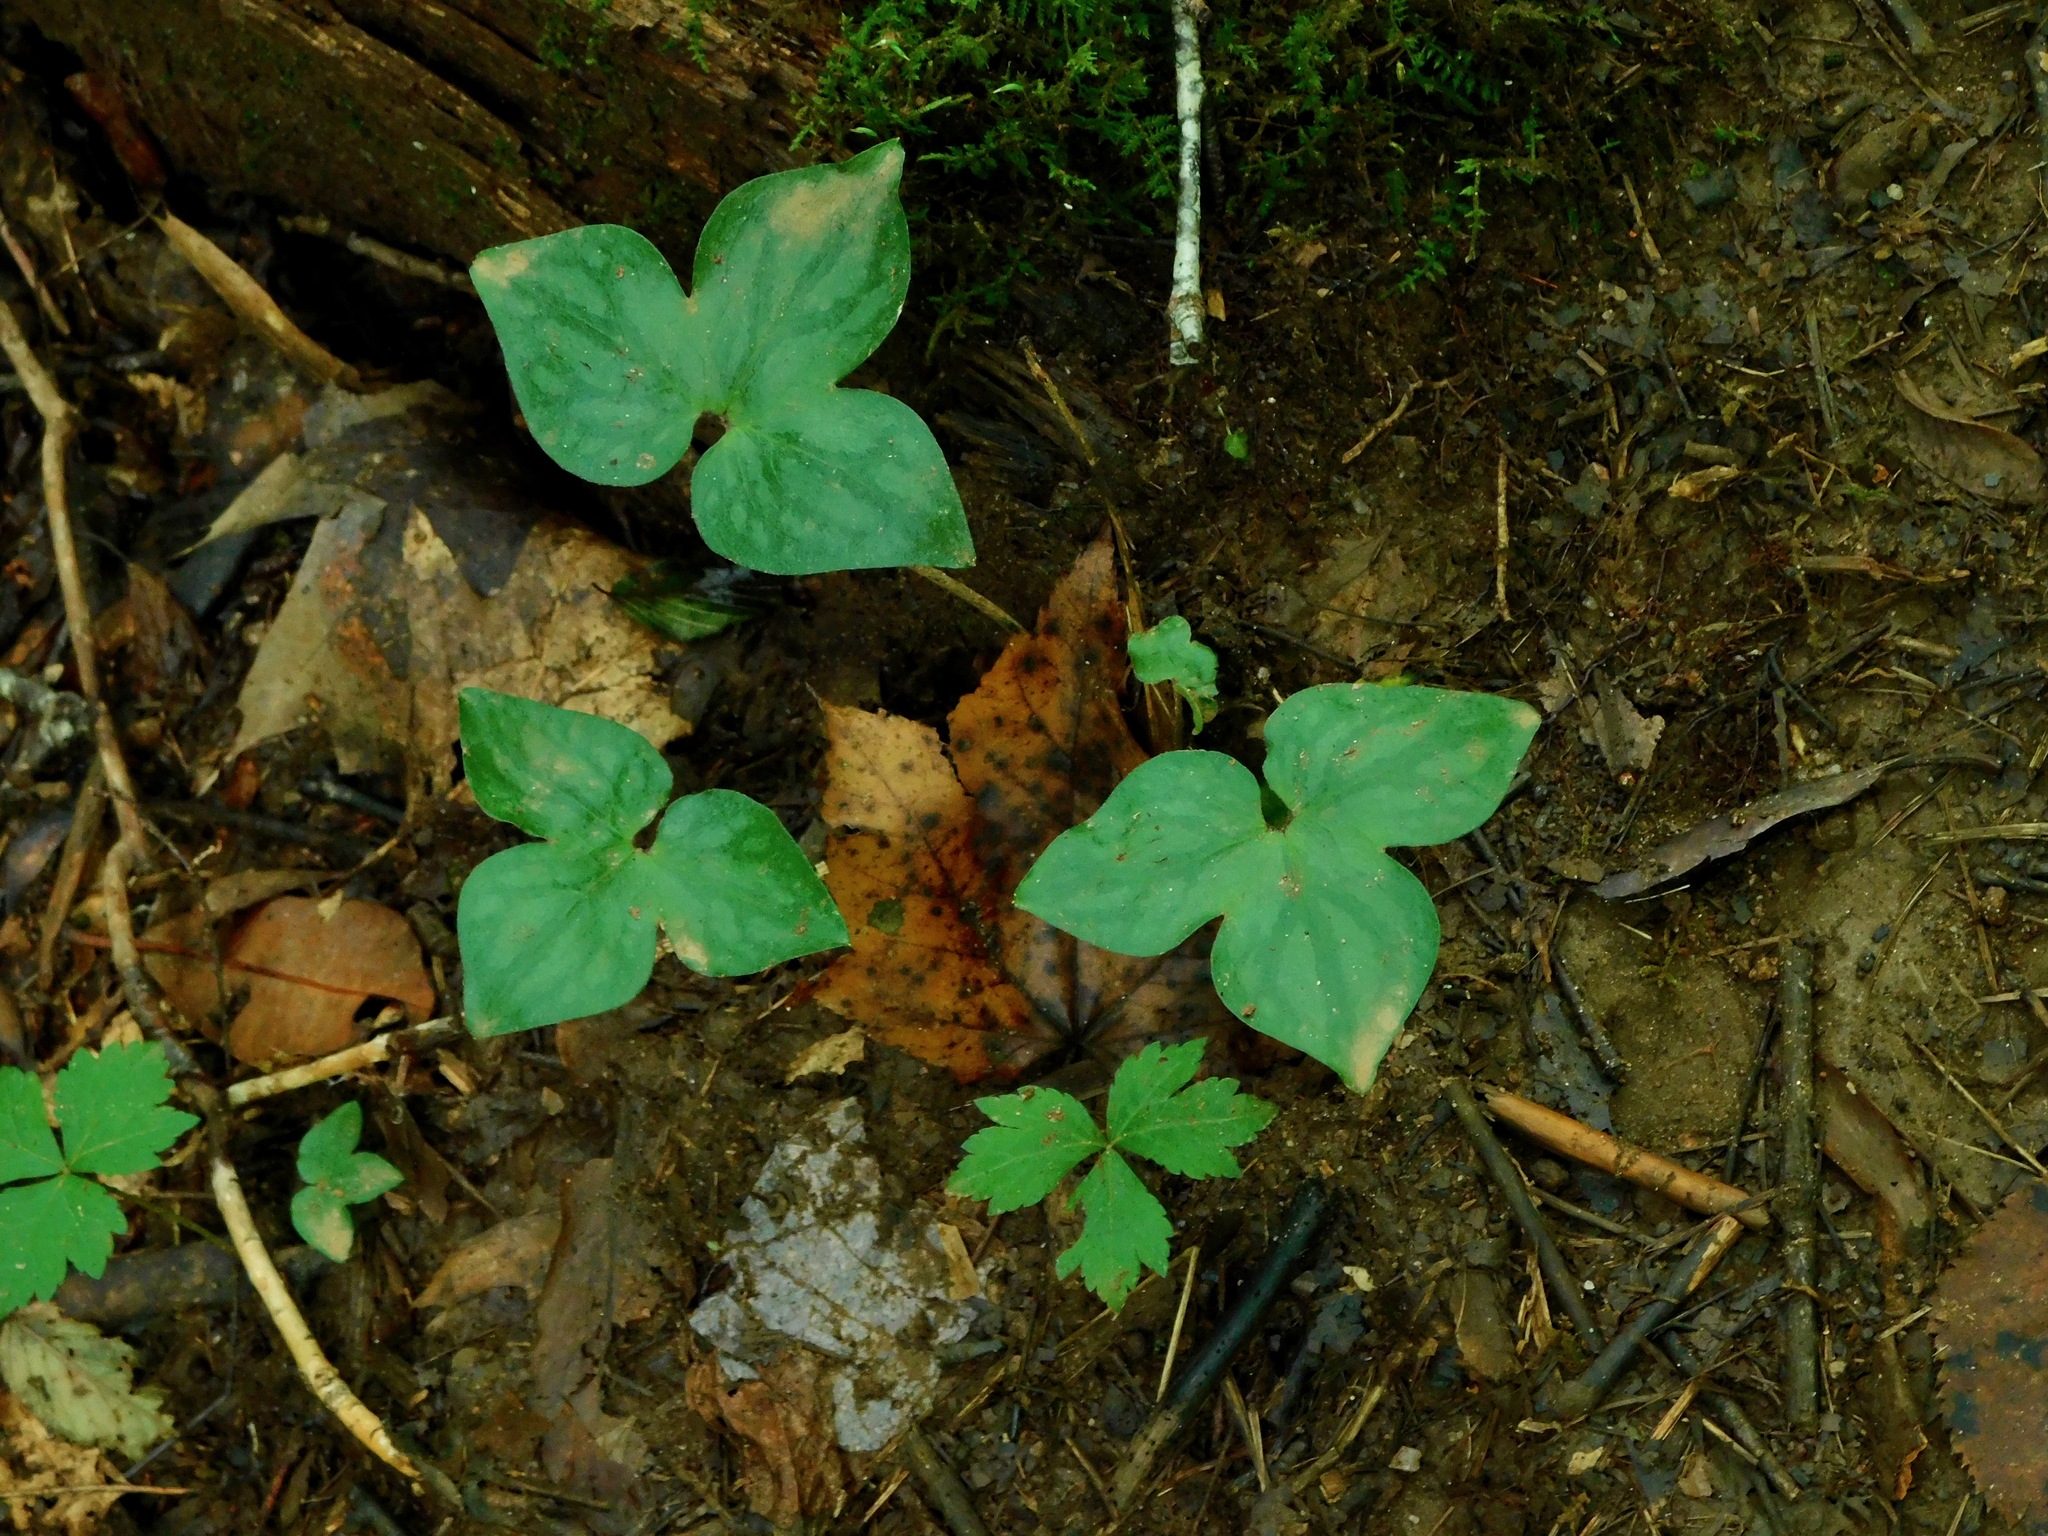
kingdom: Plantae
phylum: Tracheophyta
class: Magnoliopsida
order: Ranunculales
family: Ranunculaceae
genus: Hepatica
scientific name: Hepatica acutiloba
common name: Sharp-lobed hepatica
